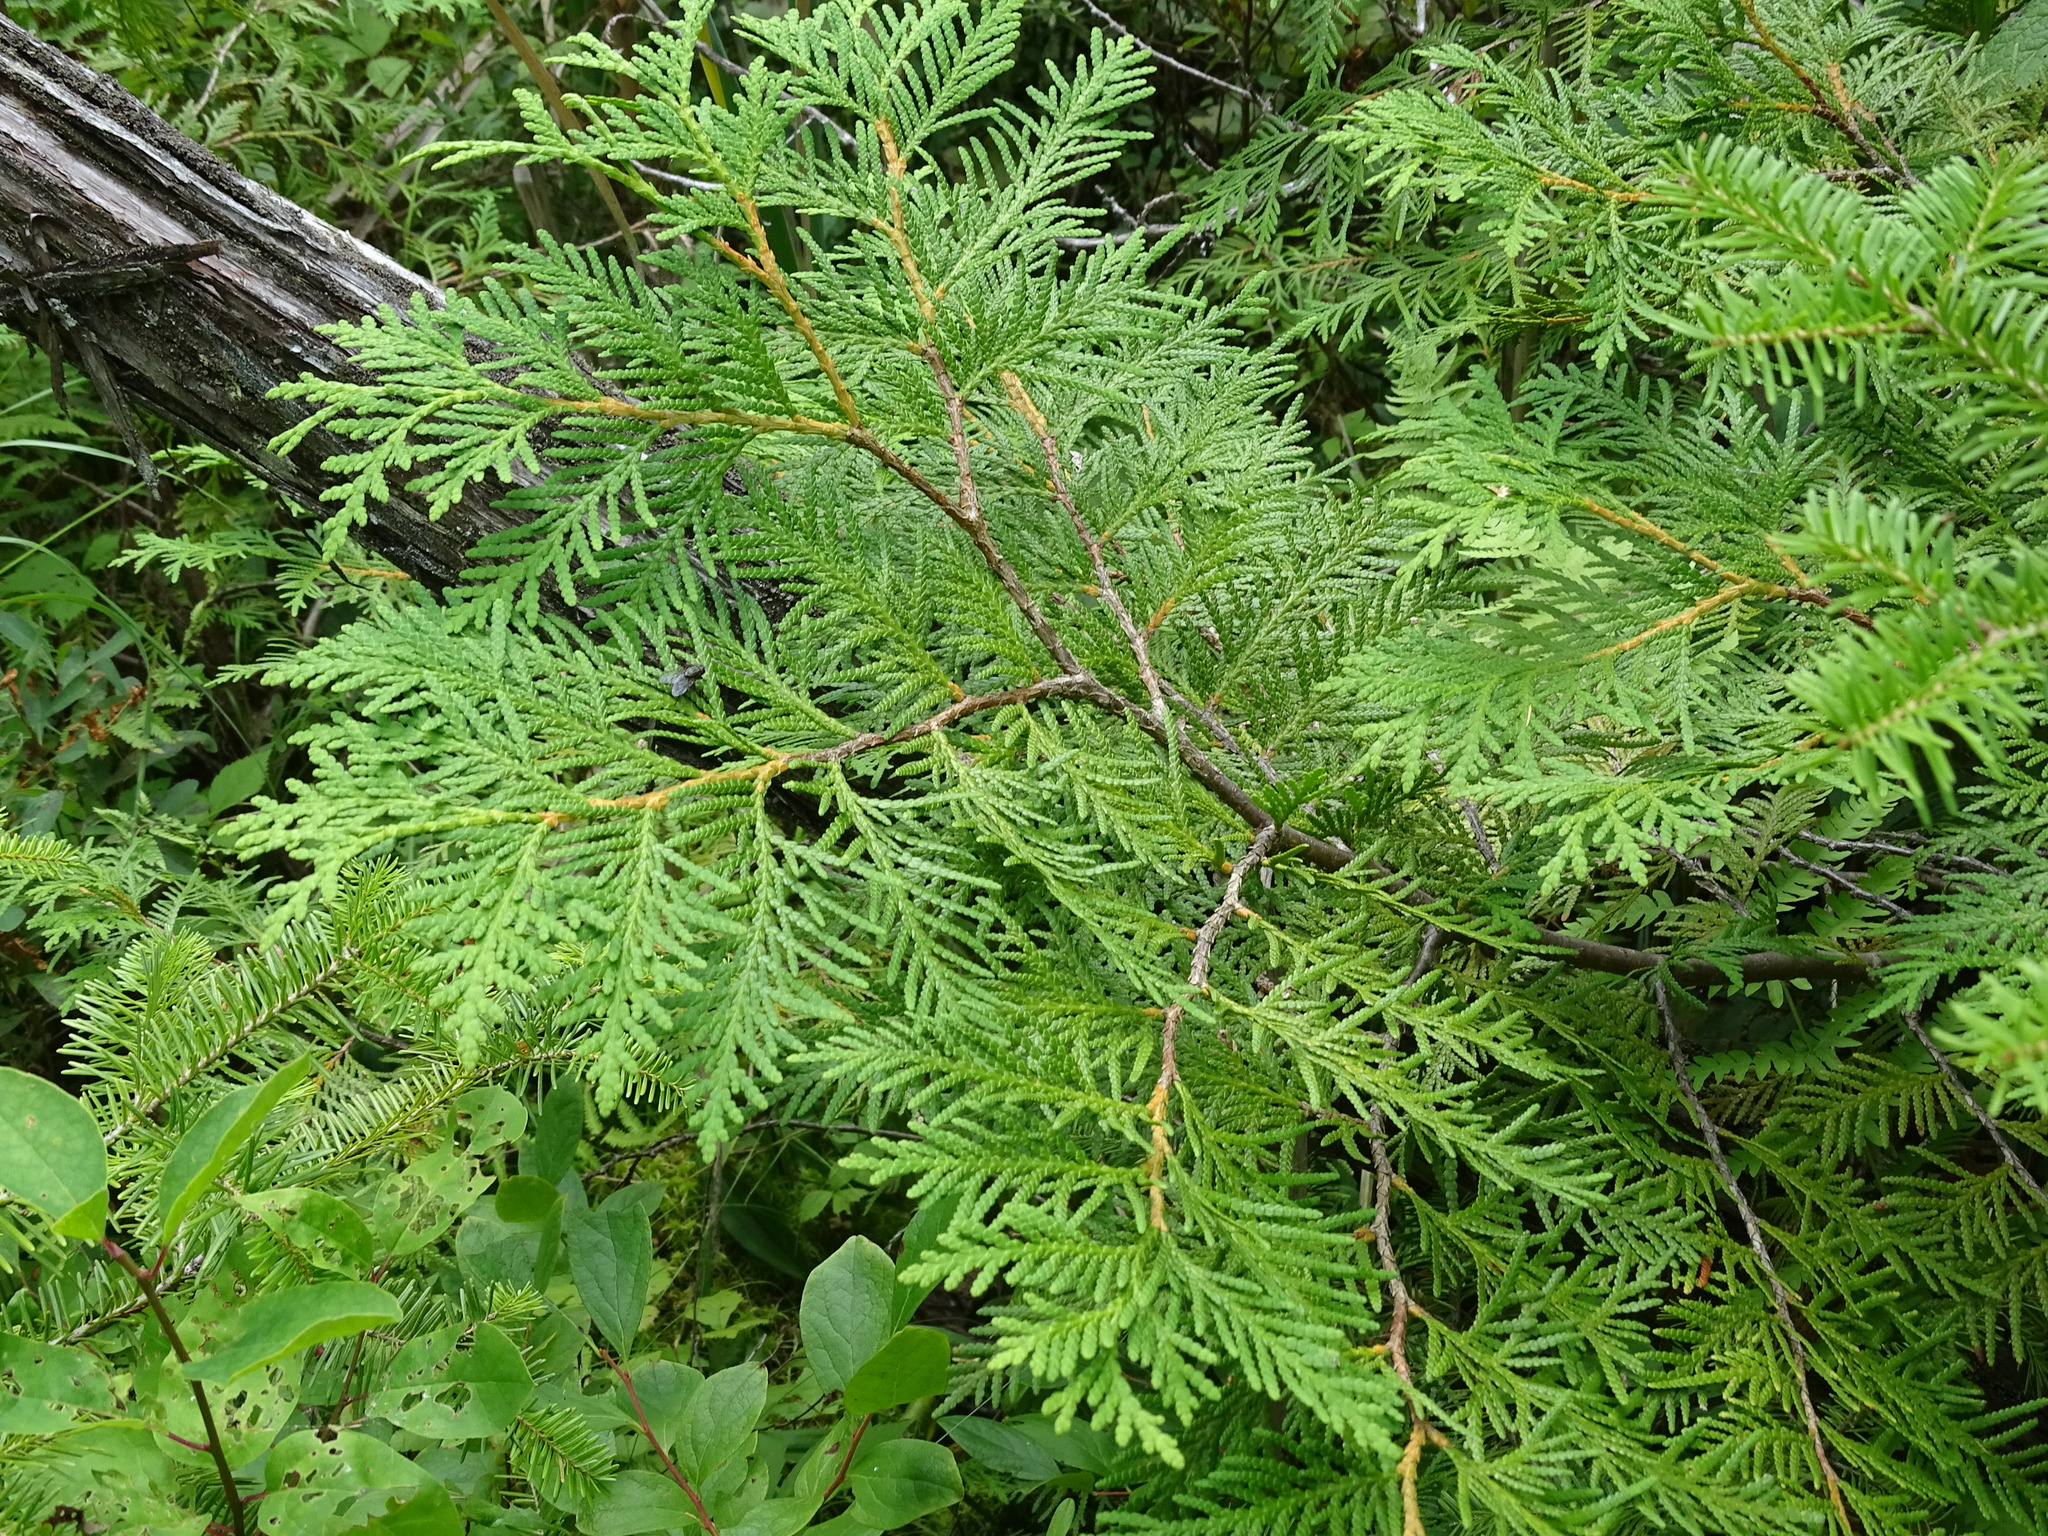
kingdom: Plantae
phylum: Tracheophyta
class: Pinopsida
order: Pinales
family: Cupressaceae
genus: Thuja
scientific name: Thuja occidentalis
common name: Northern white-cedar
